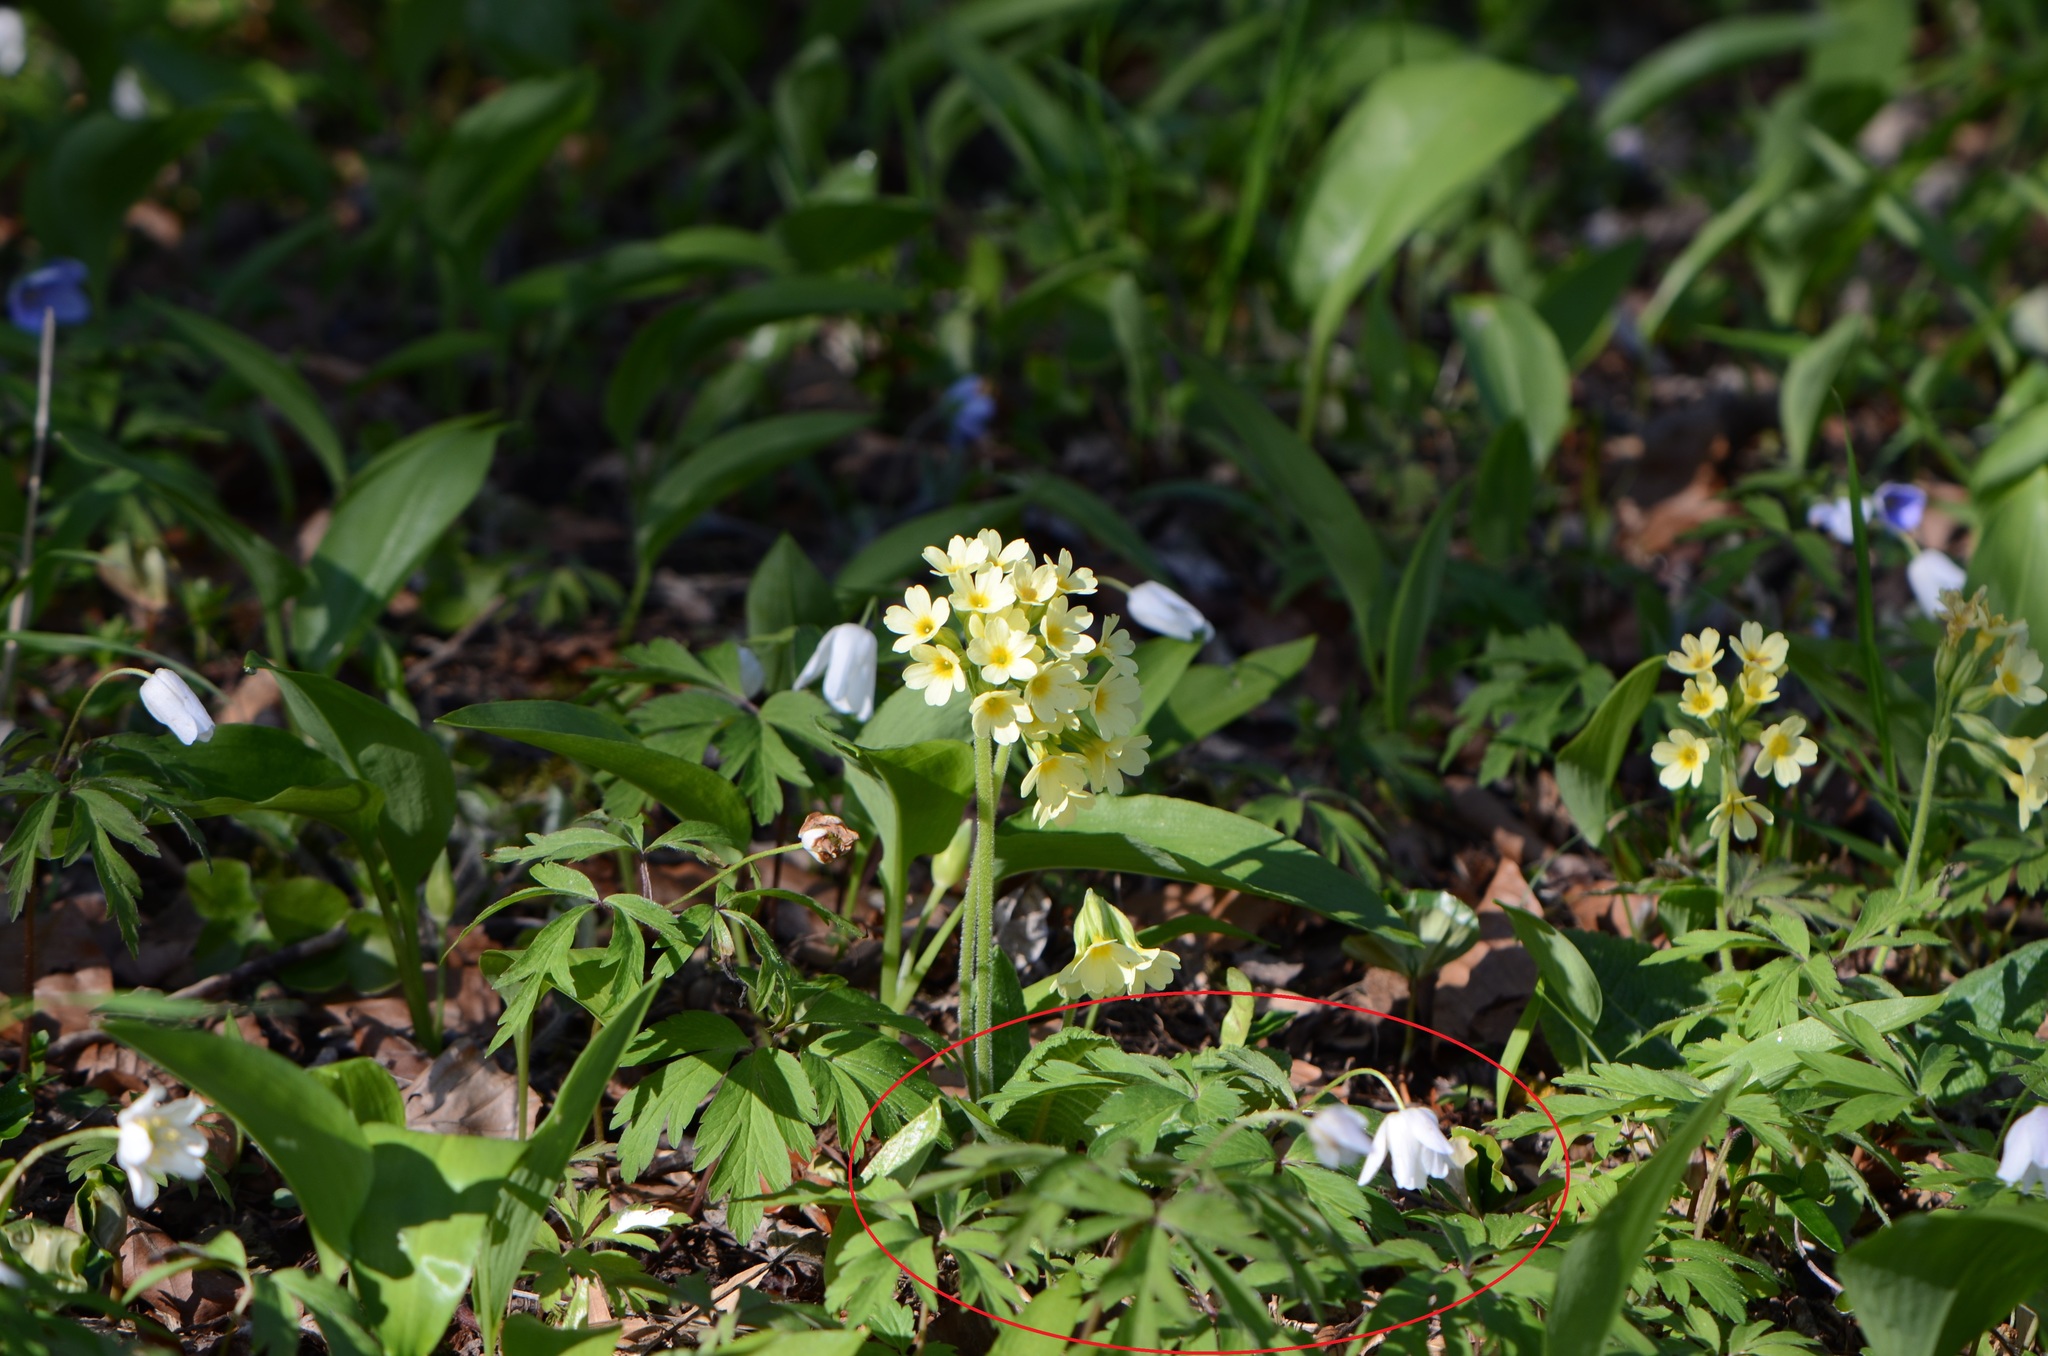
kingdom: Plantae
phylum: Tracheophyta
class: Magnoliopsida
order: Ranunculales
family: Ranunculaceae
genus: Anemone
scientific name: Anemone nemorosa
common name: Wood anemone
